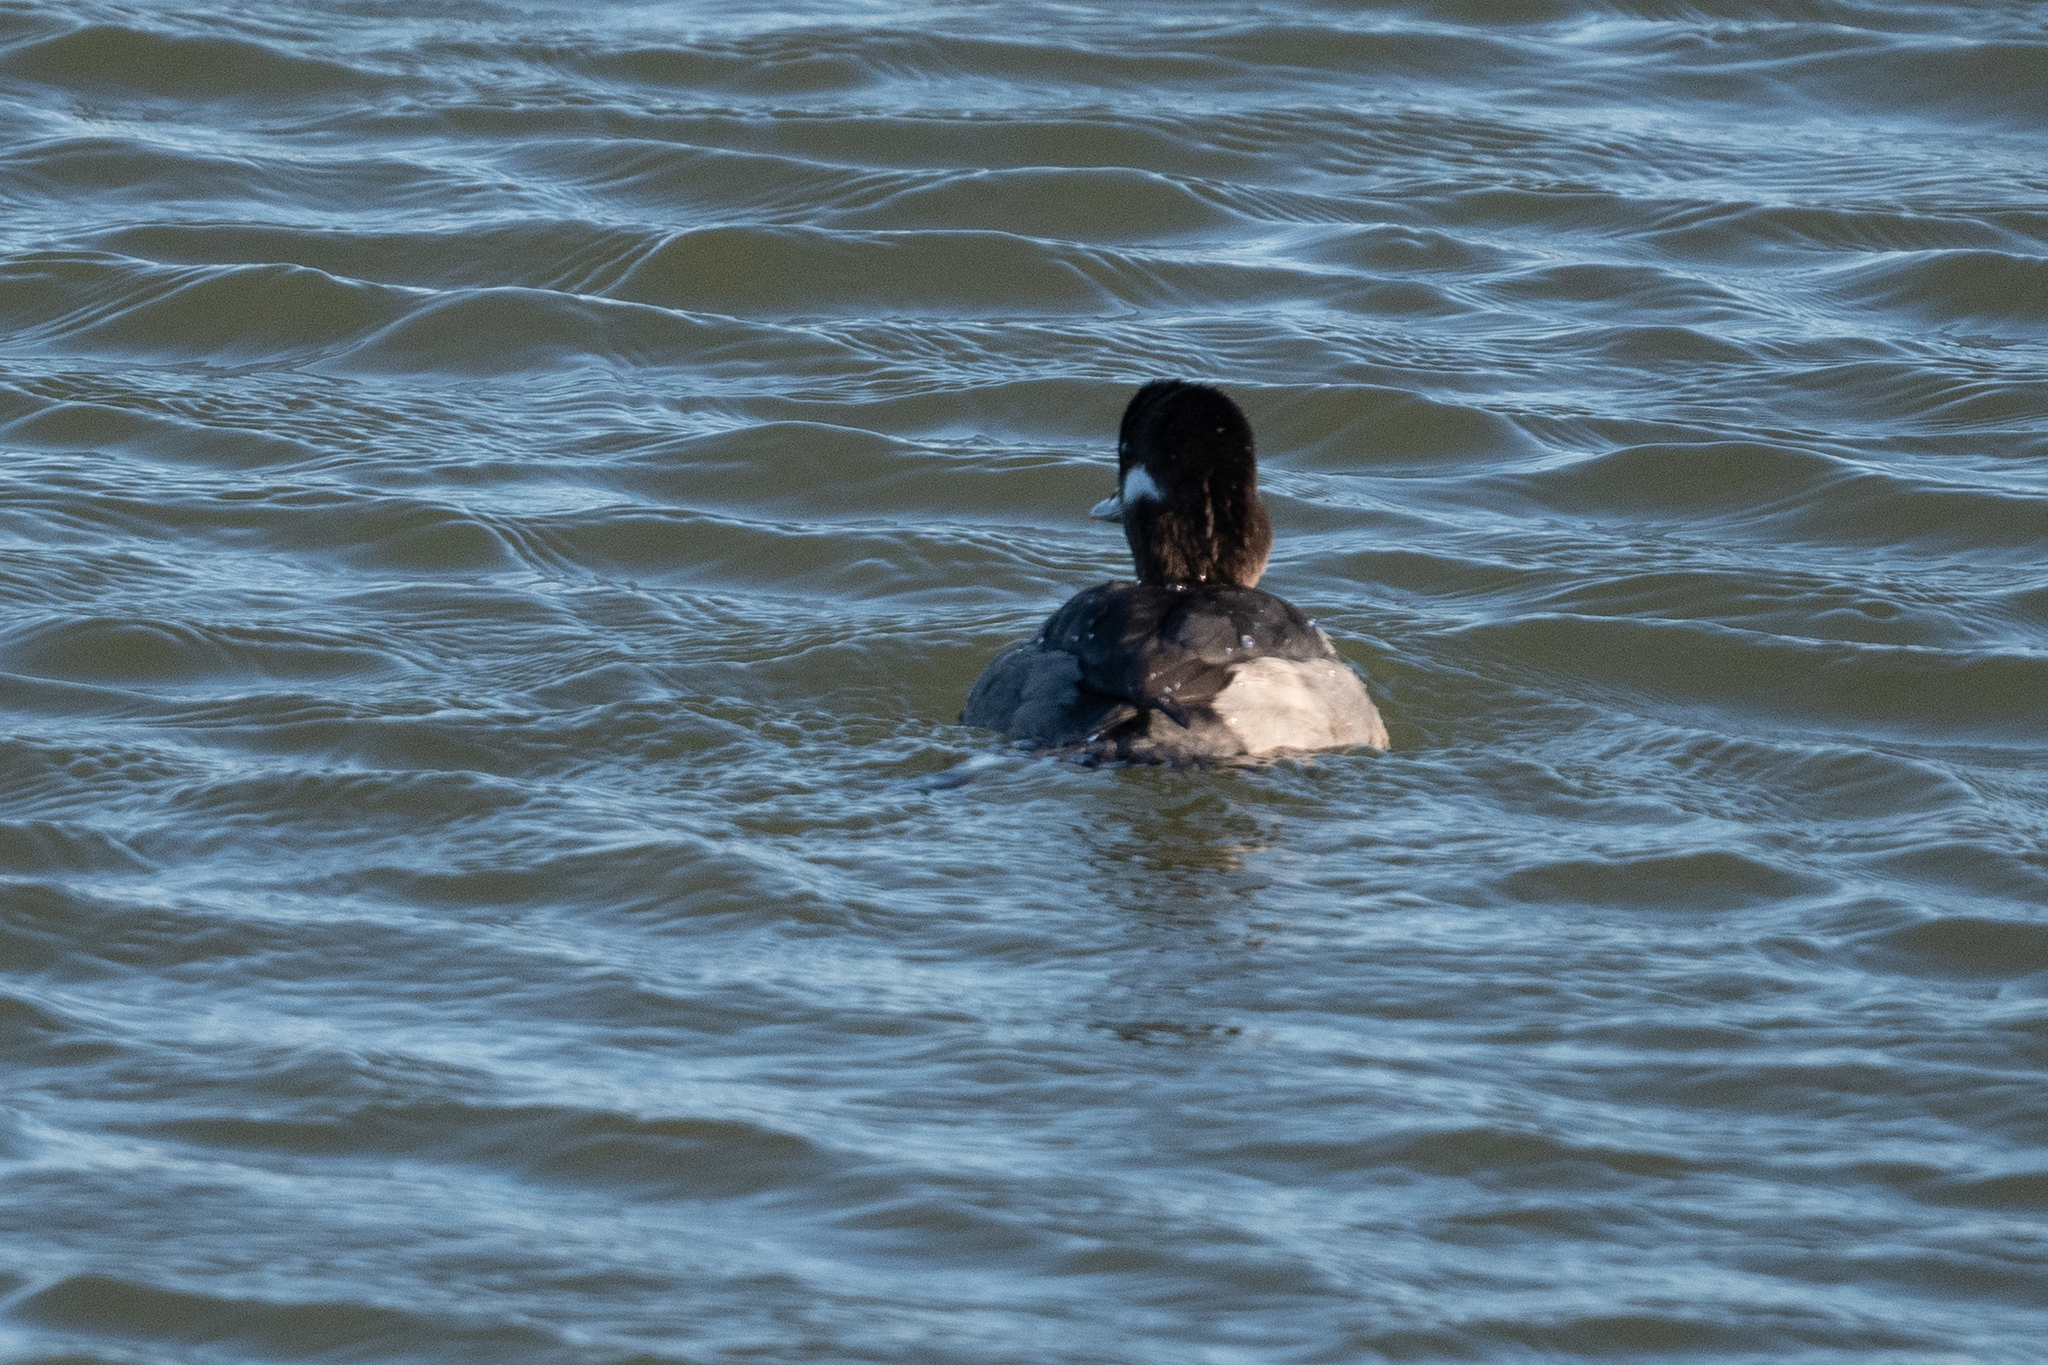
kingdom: Animalia
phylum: Chordata
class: Aves
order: Anseriformes
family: Anatidae
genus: Bucephala
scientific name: Bucephala albeola
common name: Bufflehead
